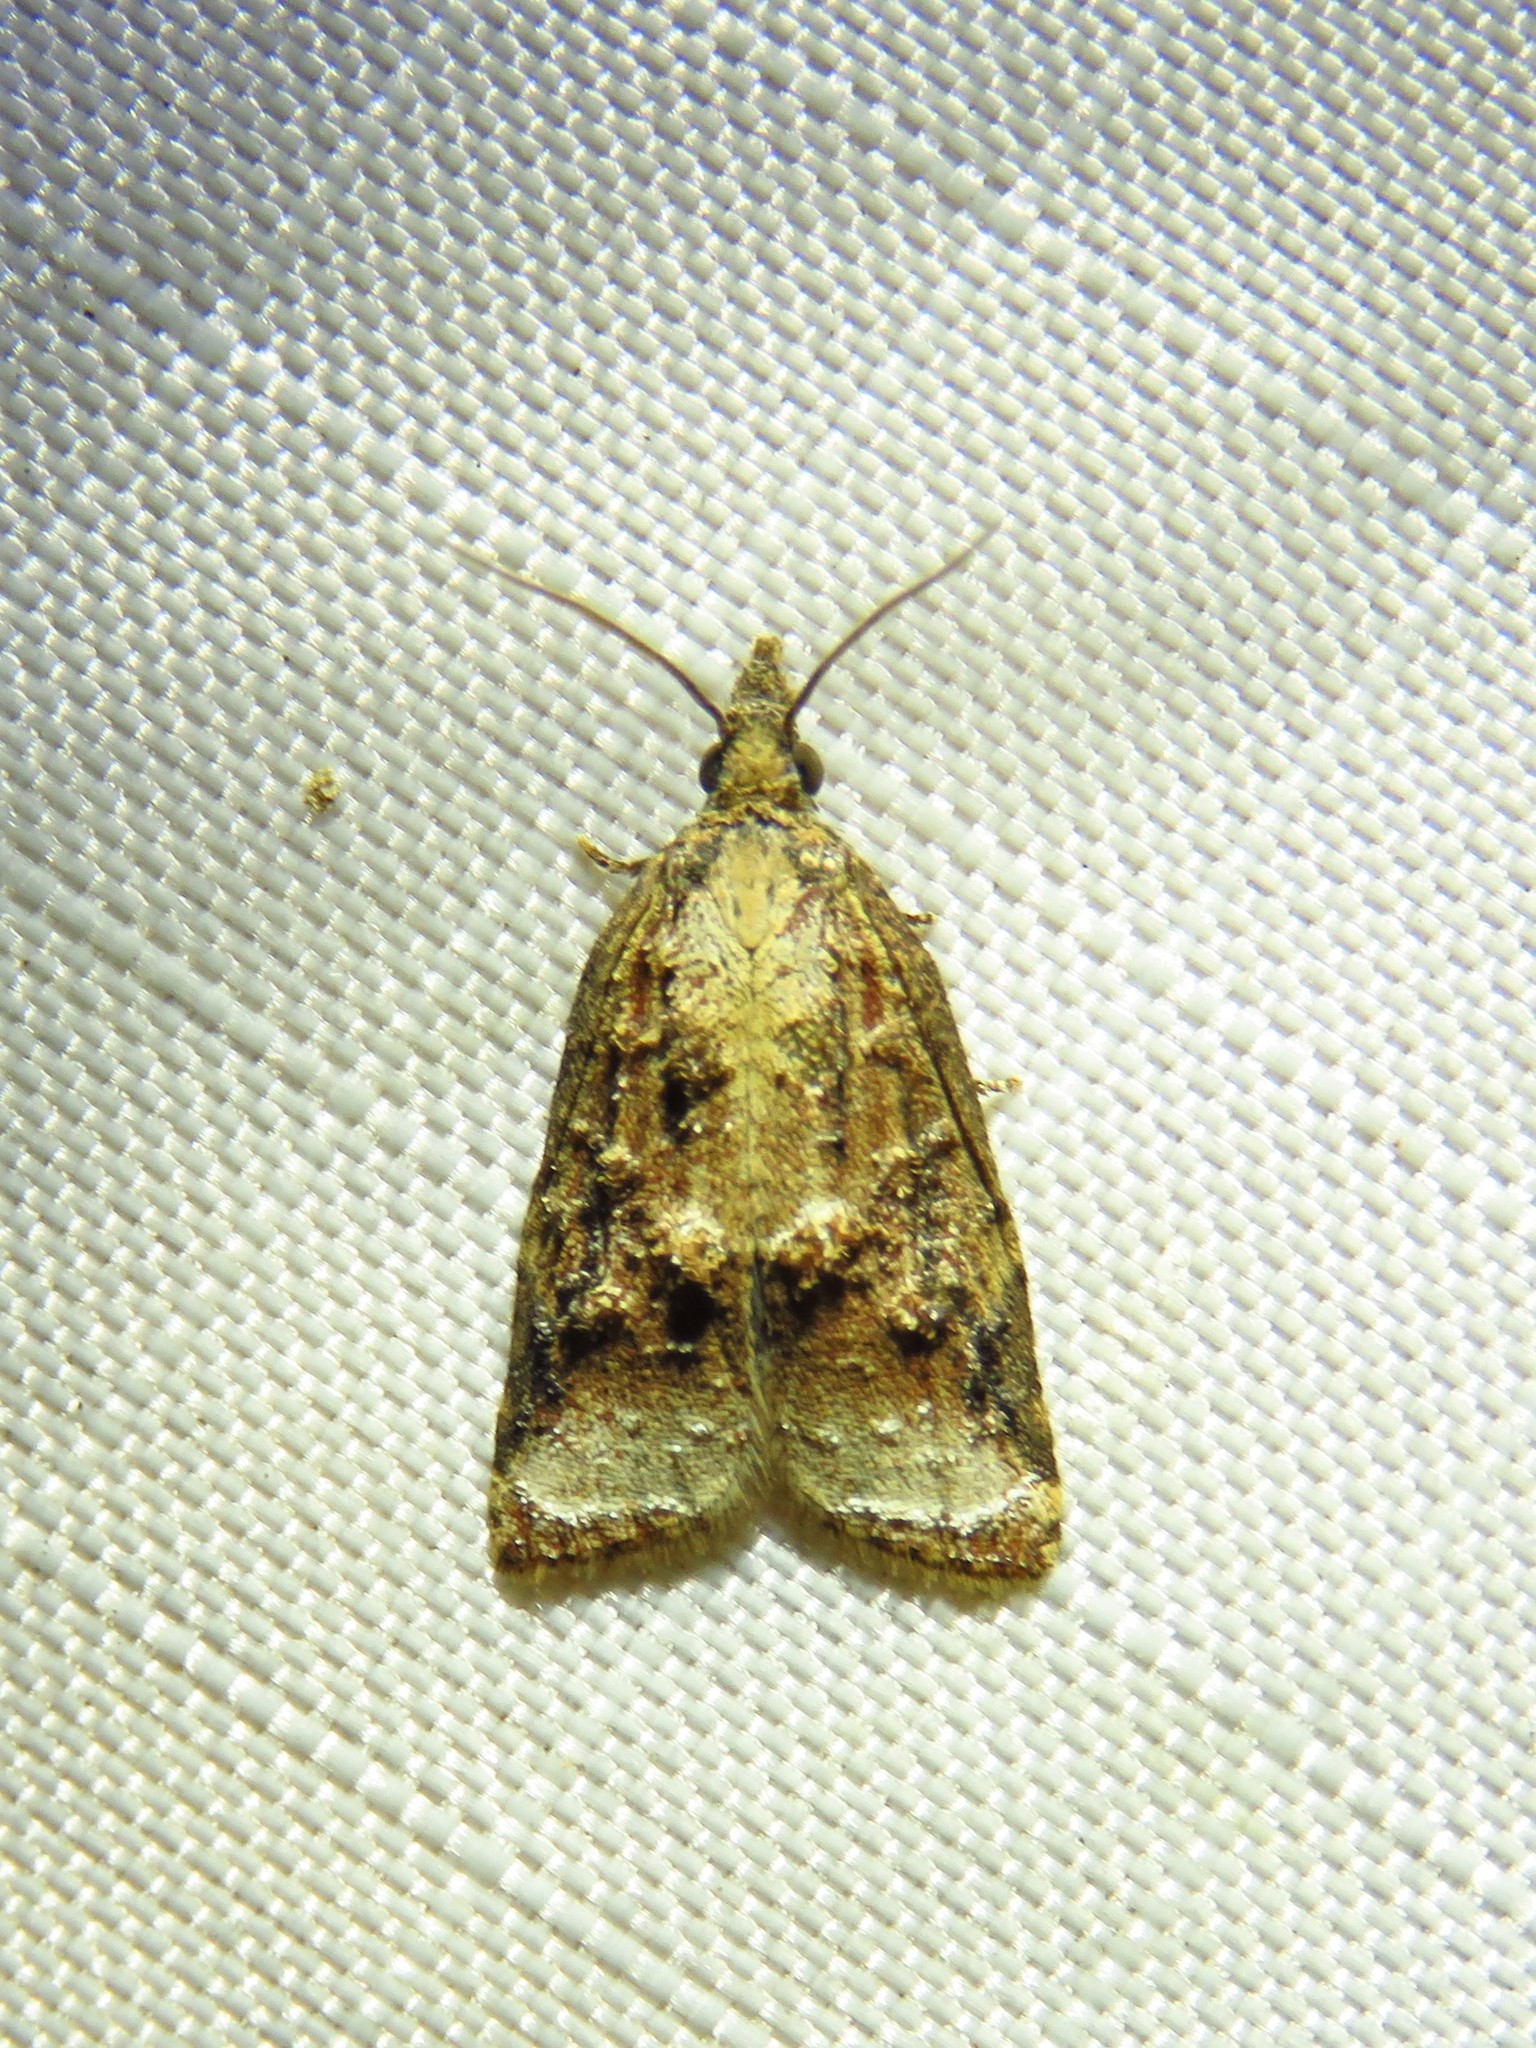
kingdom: Animalia
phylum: Arthropoda
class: Insecta
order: Lepidoptera
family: Tortricidae
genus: Platynota
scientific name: Platynota rostrana
